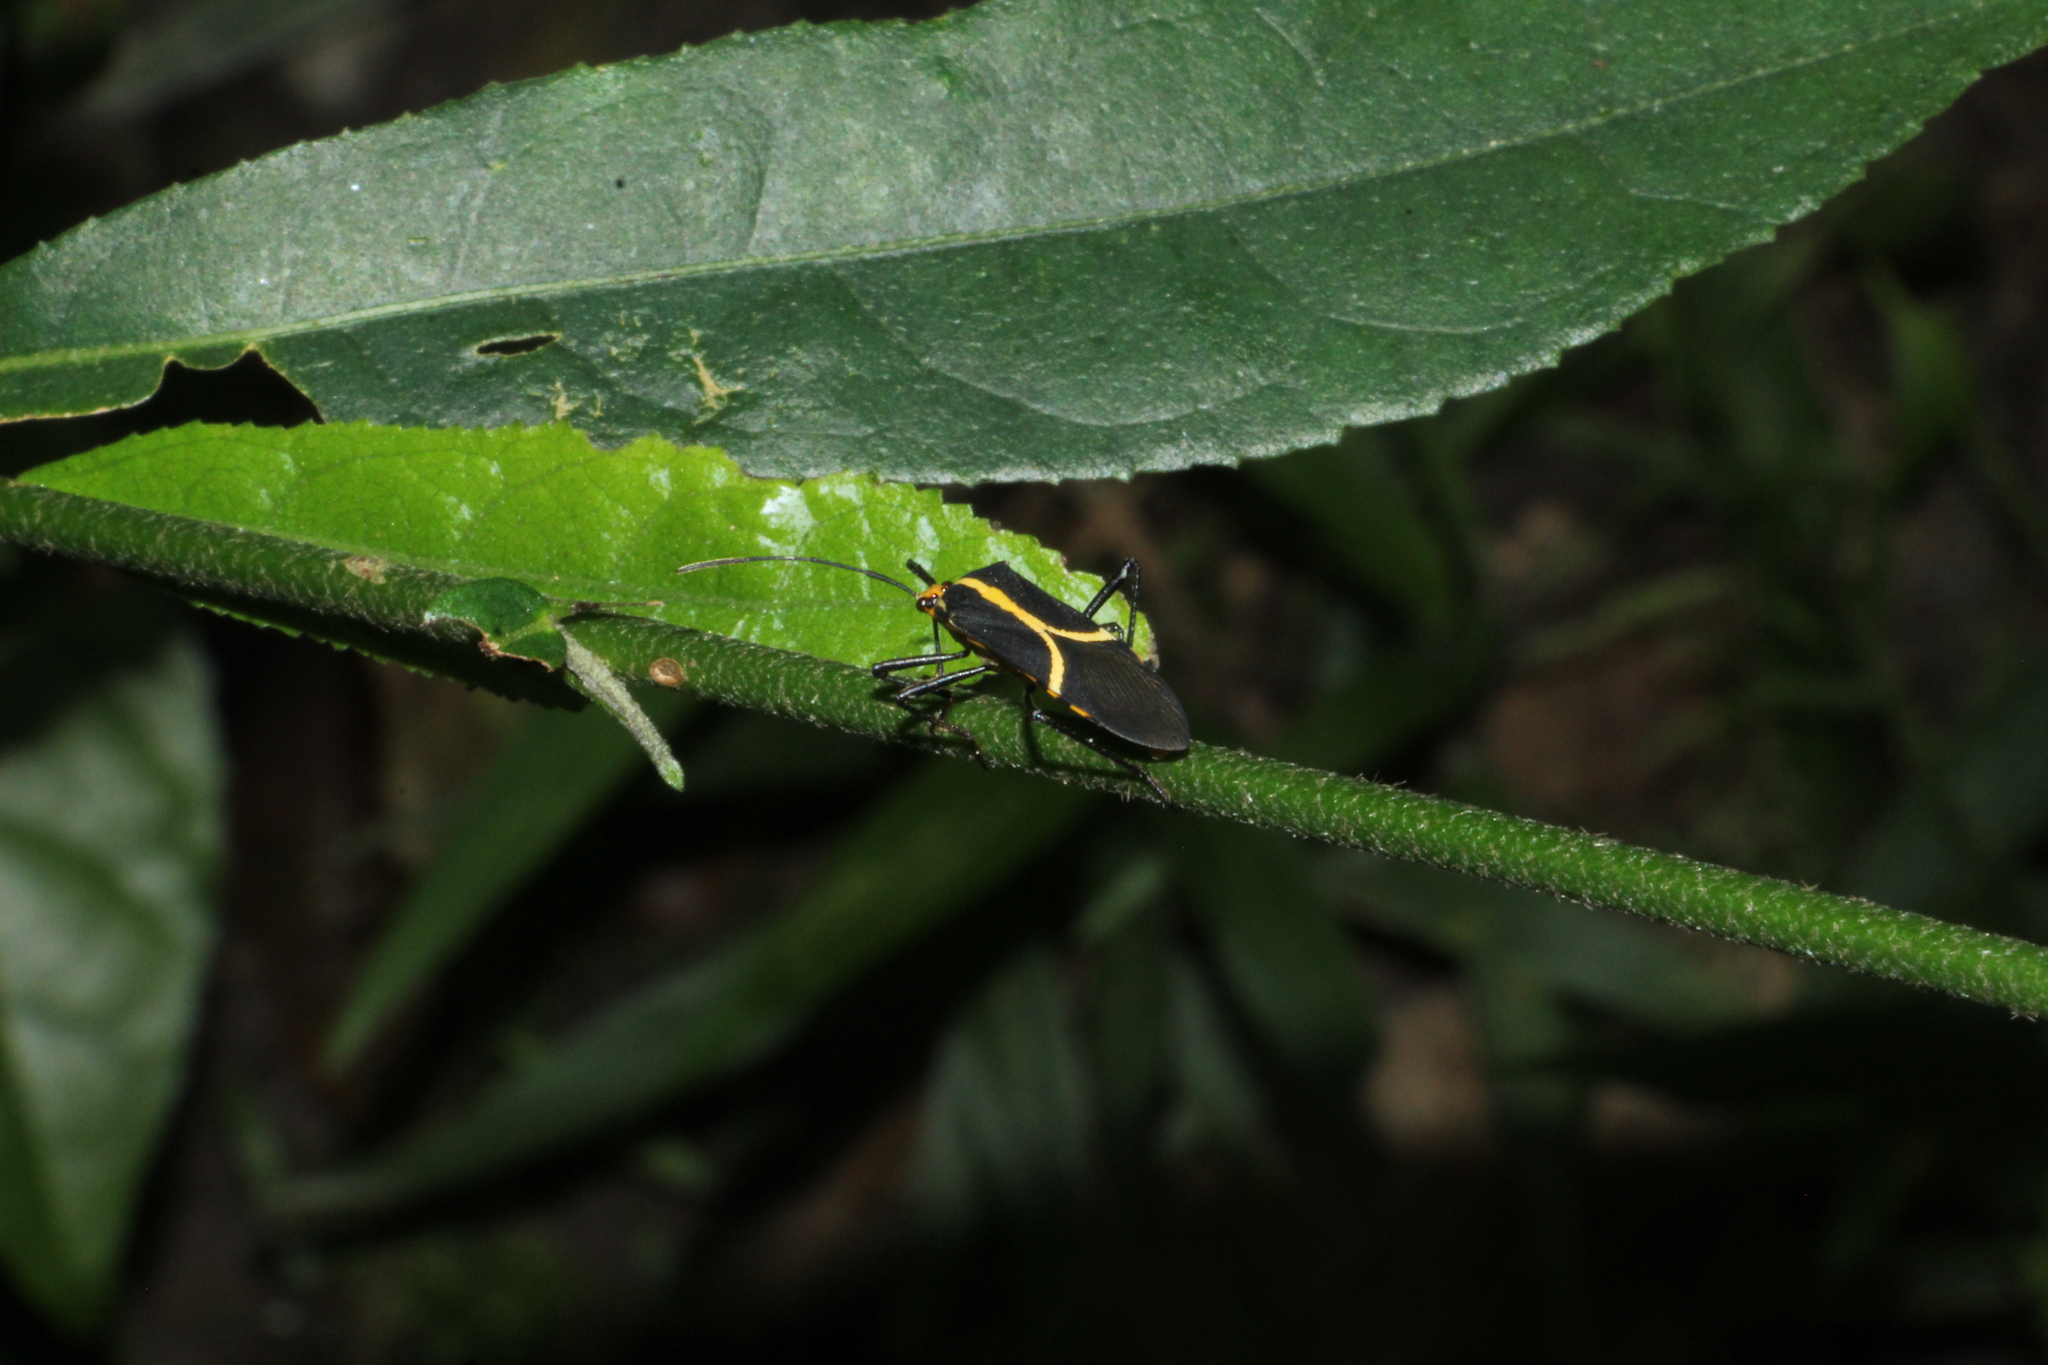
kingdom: Animalia
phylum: Arthropoda
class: Insecta
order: Hemiptera
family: Coreidae
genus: Hypselonotus
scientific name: Hypselonotus linea
